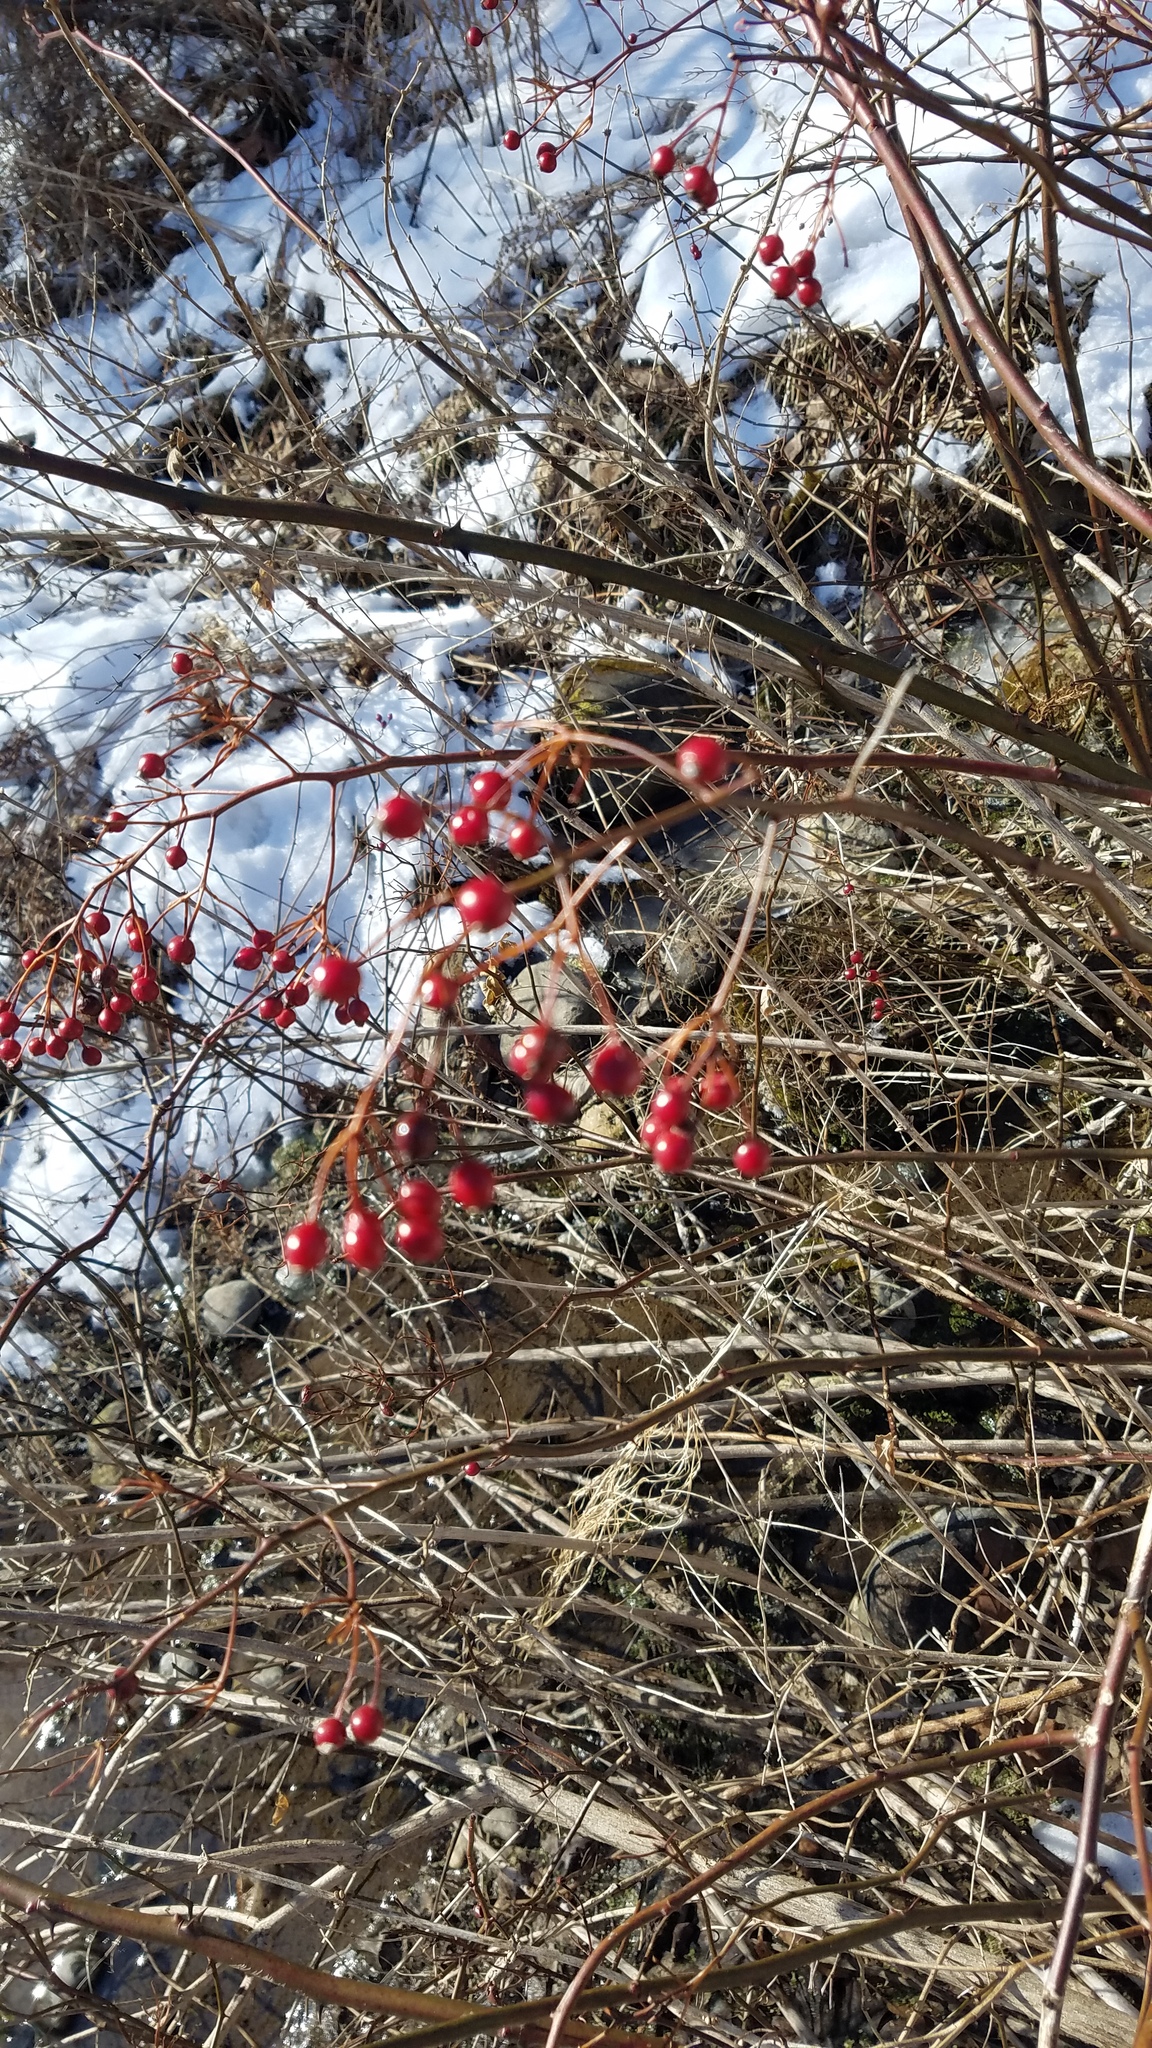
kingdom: Plantae
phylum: Tracheophyta
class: Magnoliopsida
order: Rosales
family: Rosaceae
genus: Rosa
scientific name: Rosa multiflora
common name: Multiflora rose
